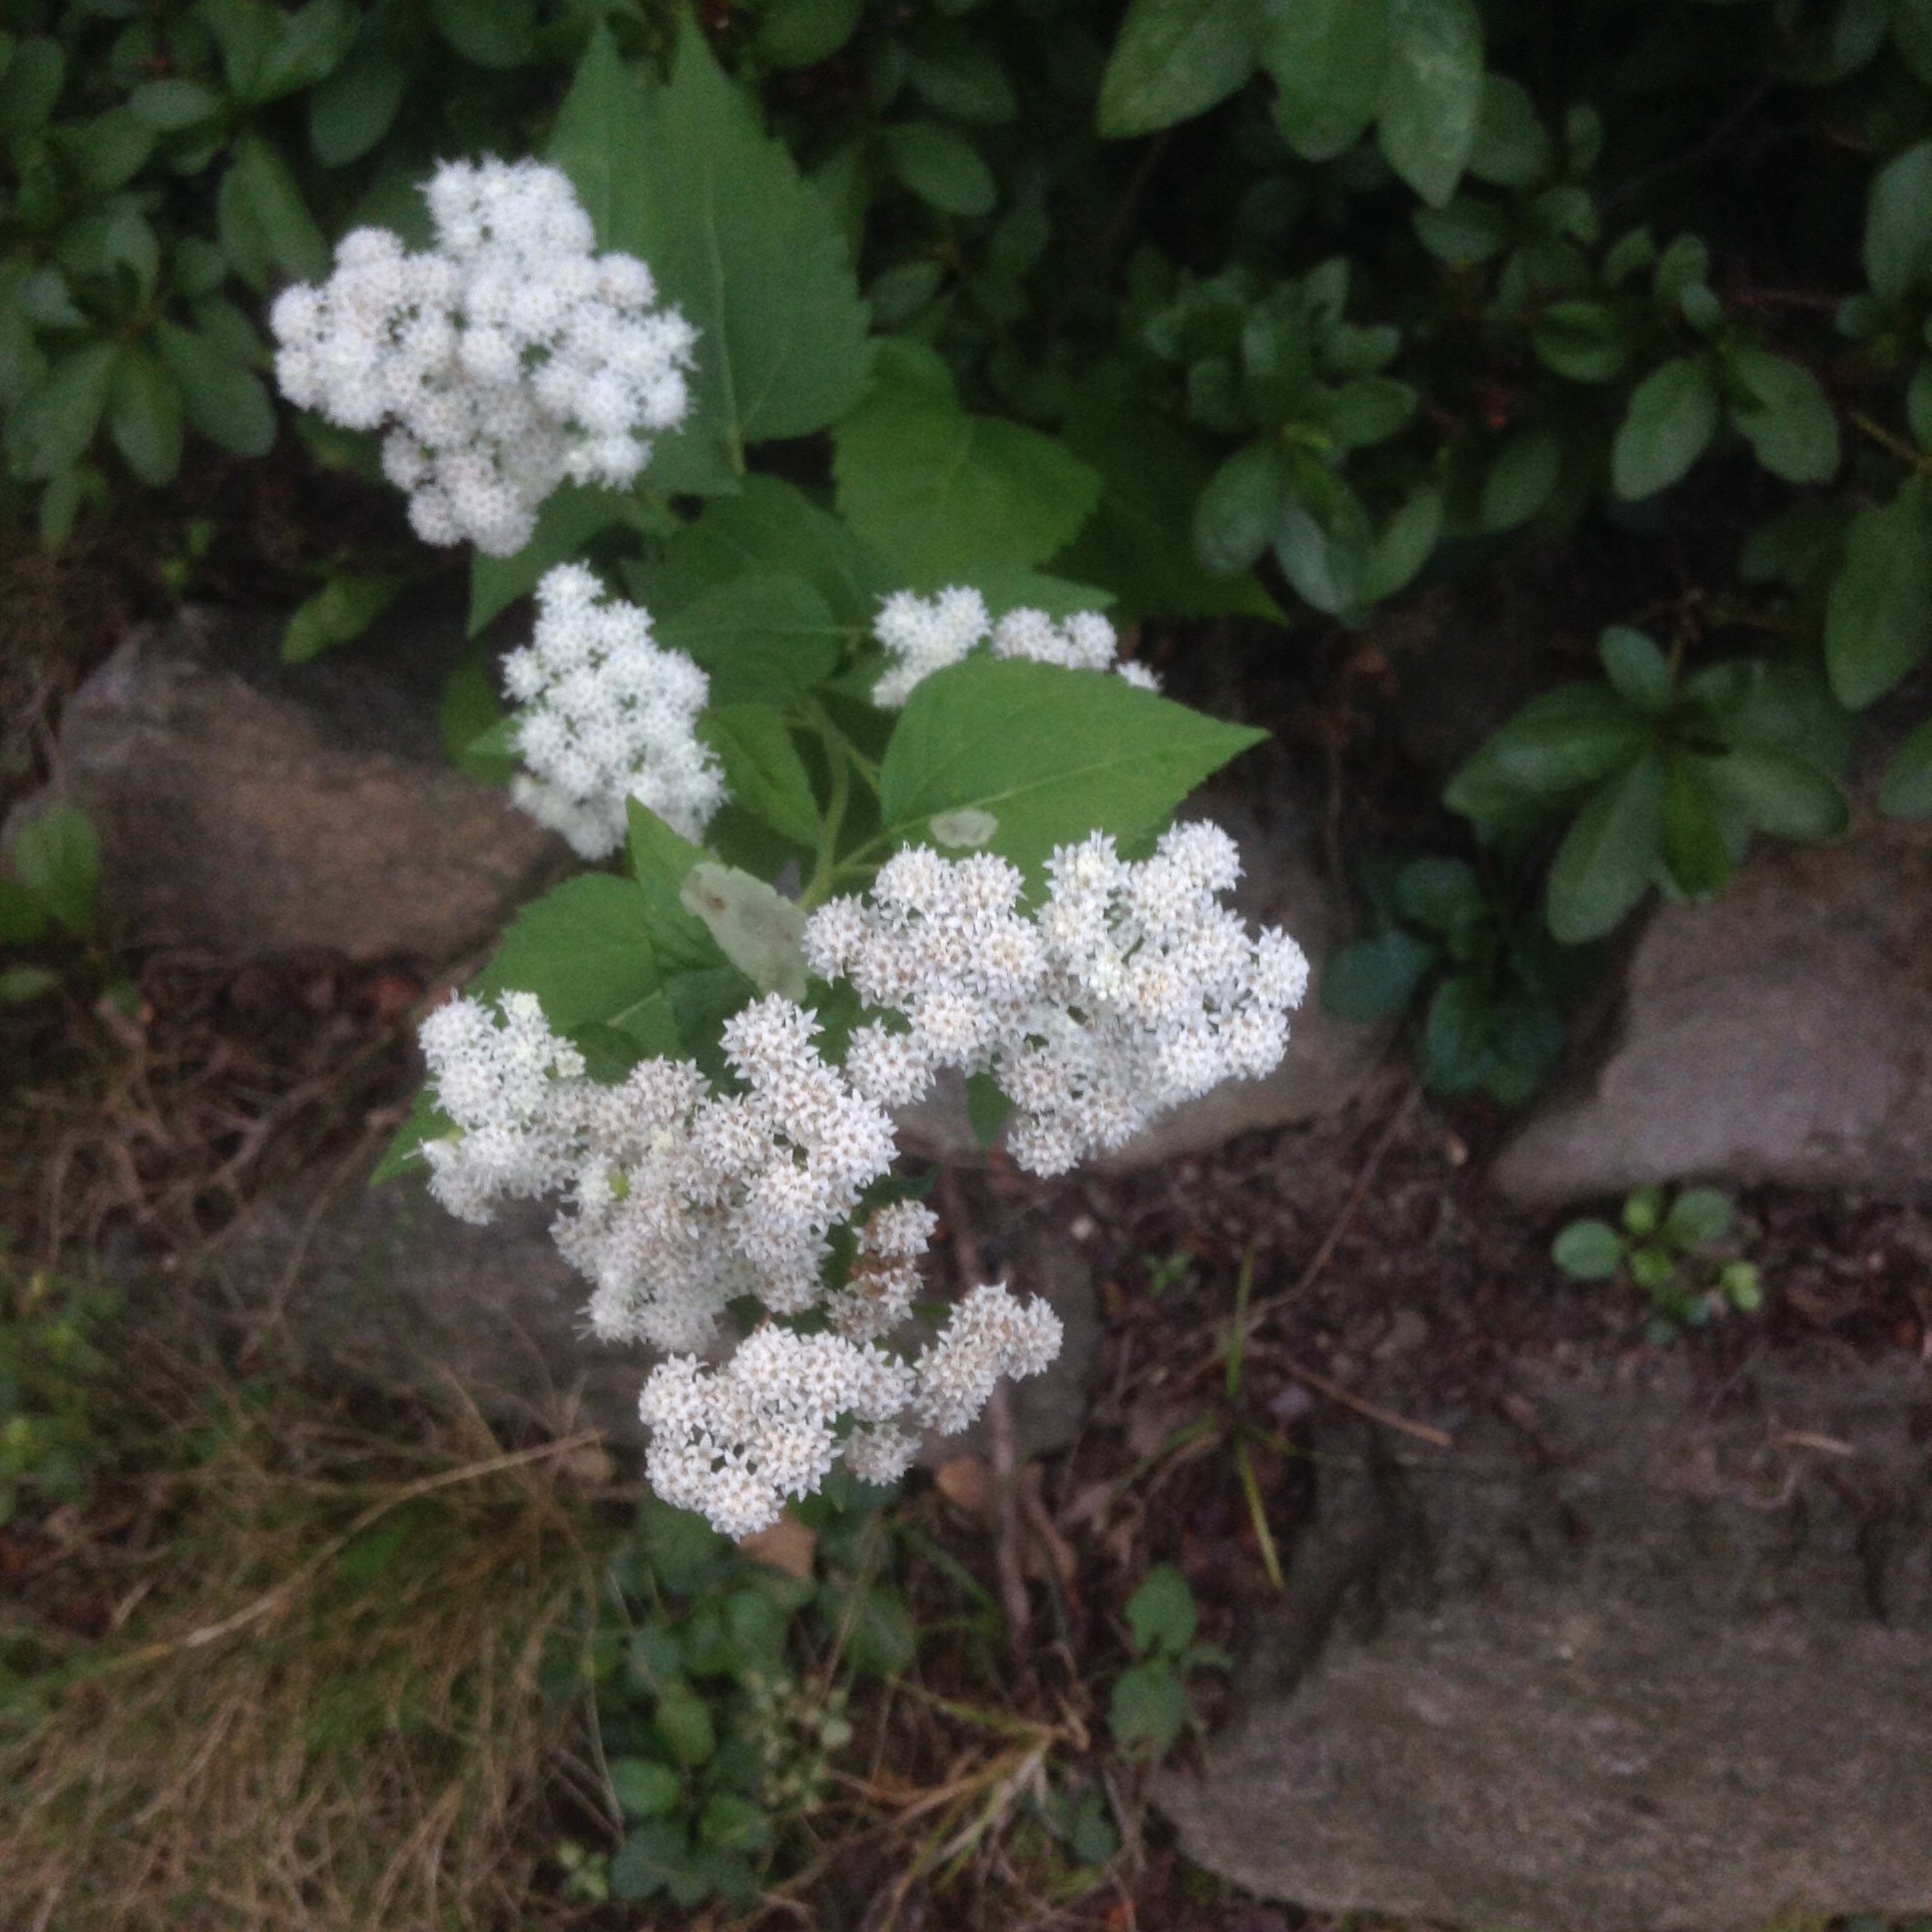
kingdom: Plantae
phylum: Tracheophyta
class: Magnoliopsida
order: Asterales
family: Asteraceae
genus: Ageratina
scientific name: Ageratina altissima
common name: White snakeroot
